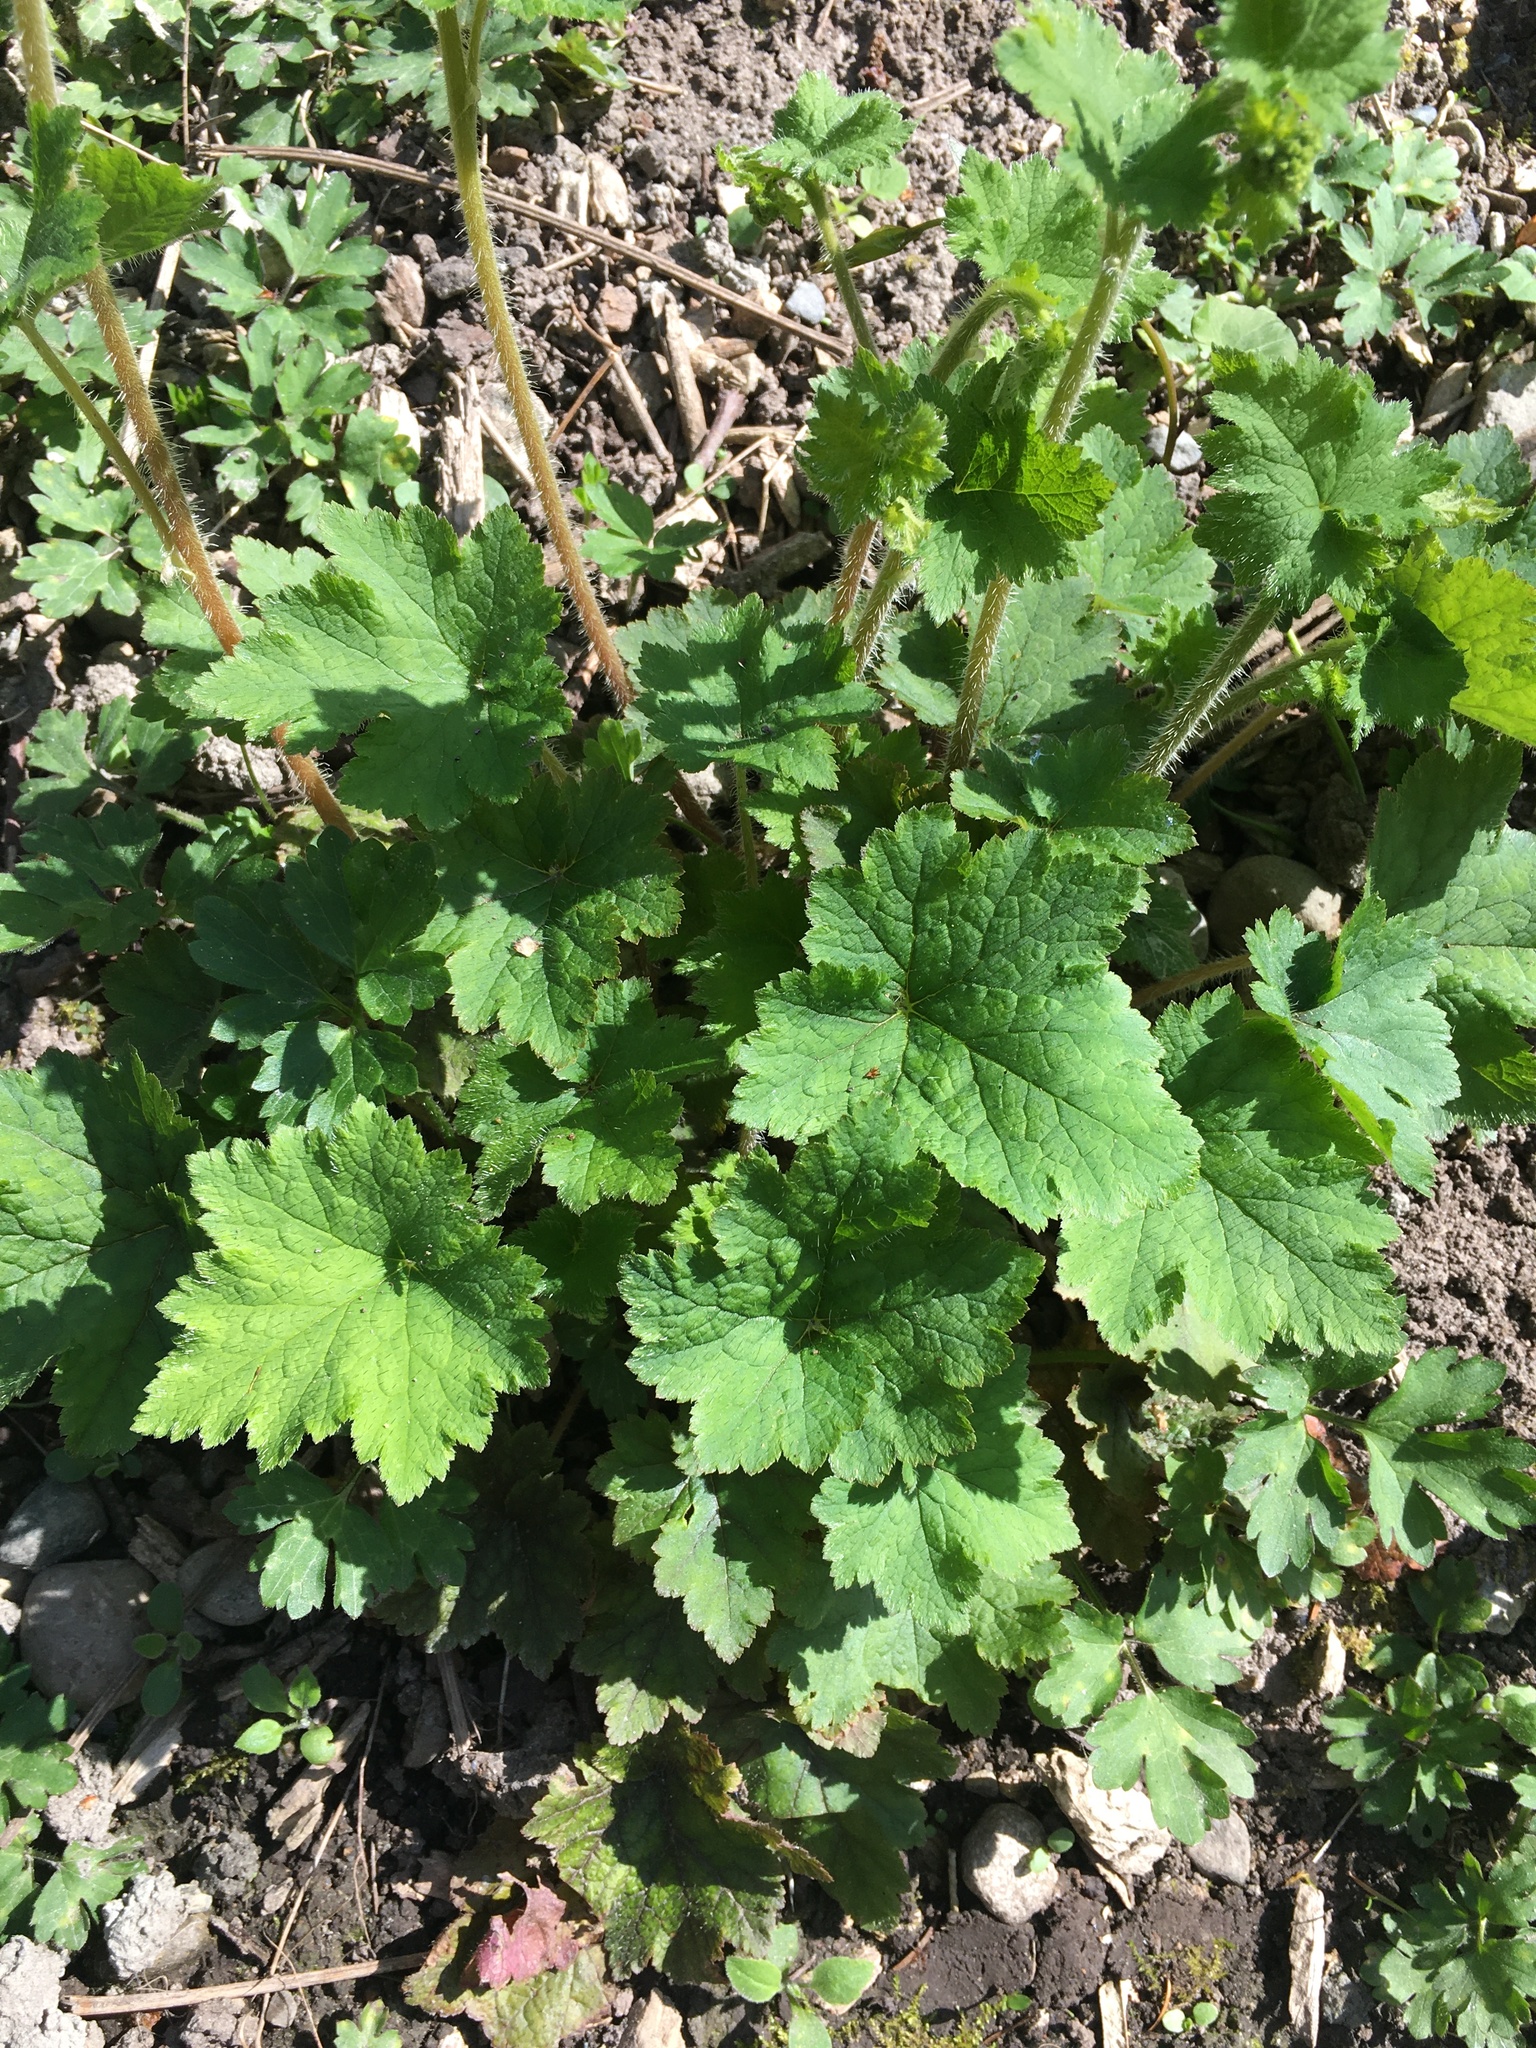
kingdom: Plantae
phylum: Tracheophyta
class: Magnoliopsida
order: Saxifragales
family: Saxifragaceae
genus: Tellima
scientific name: Tellima grandiflora
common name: Fringecups
